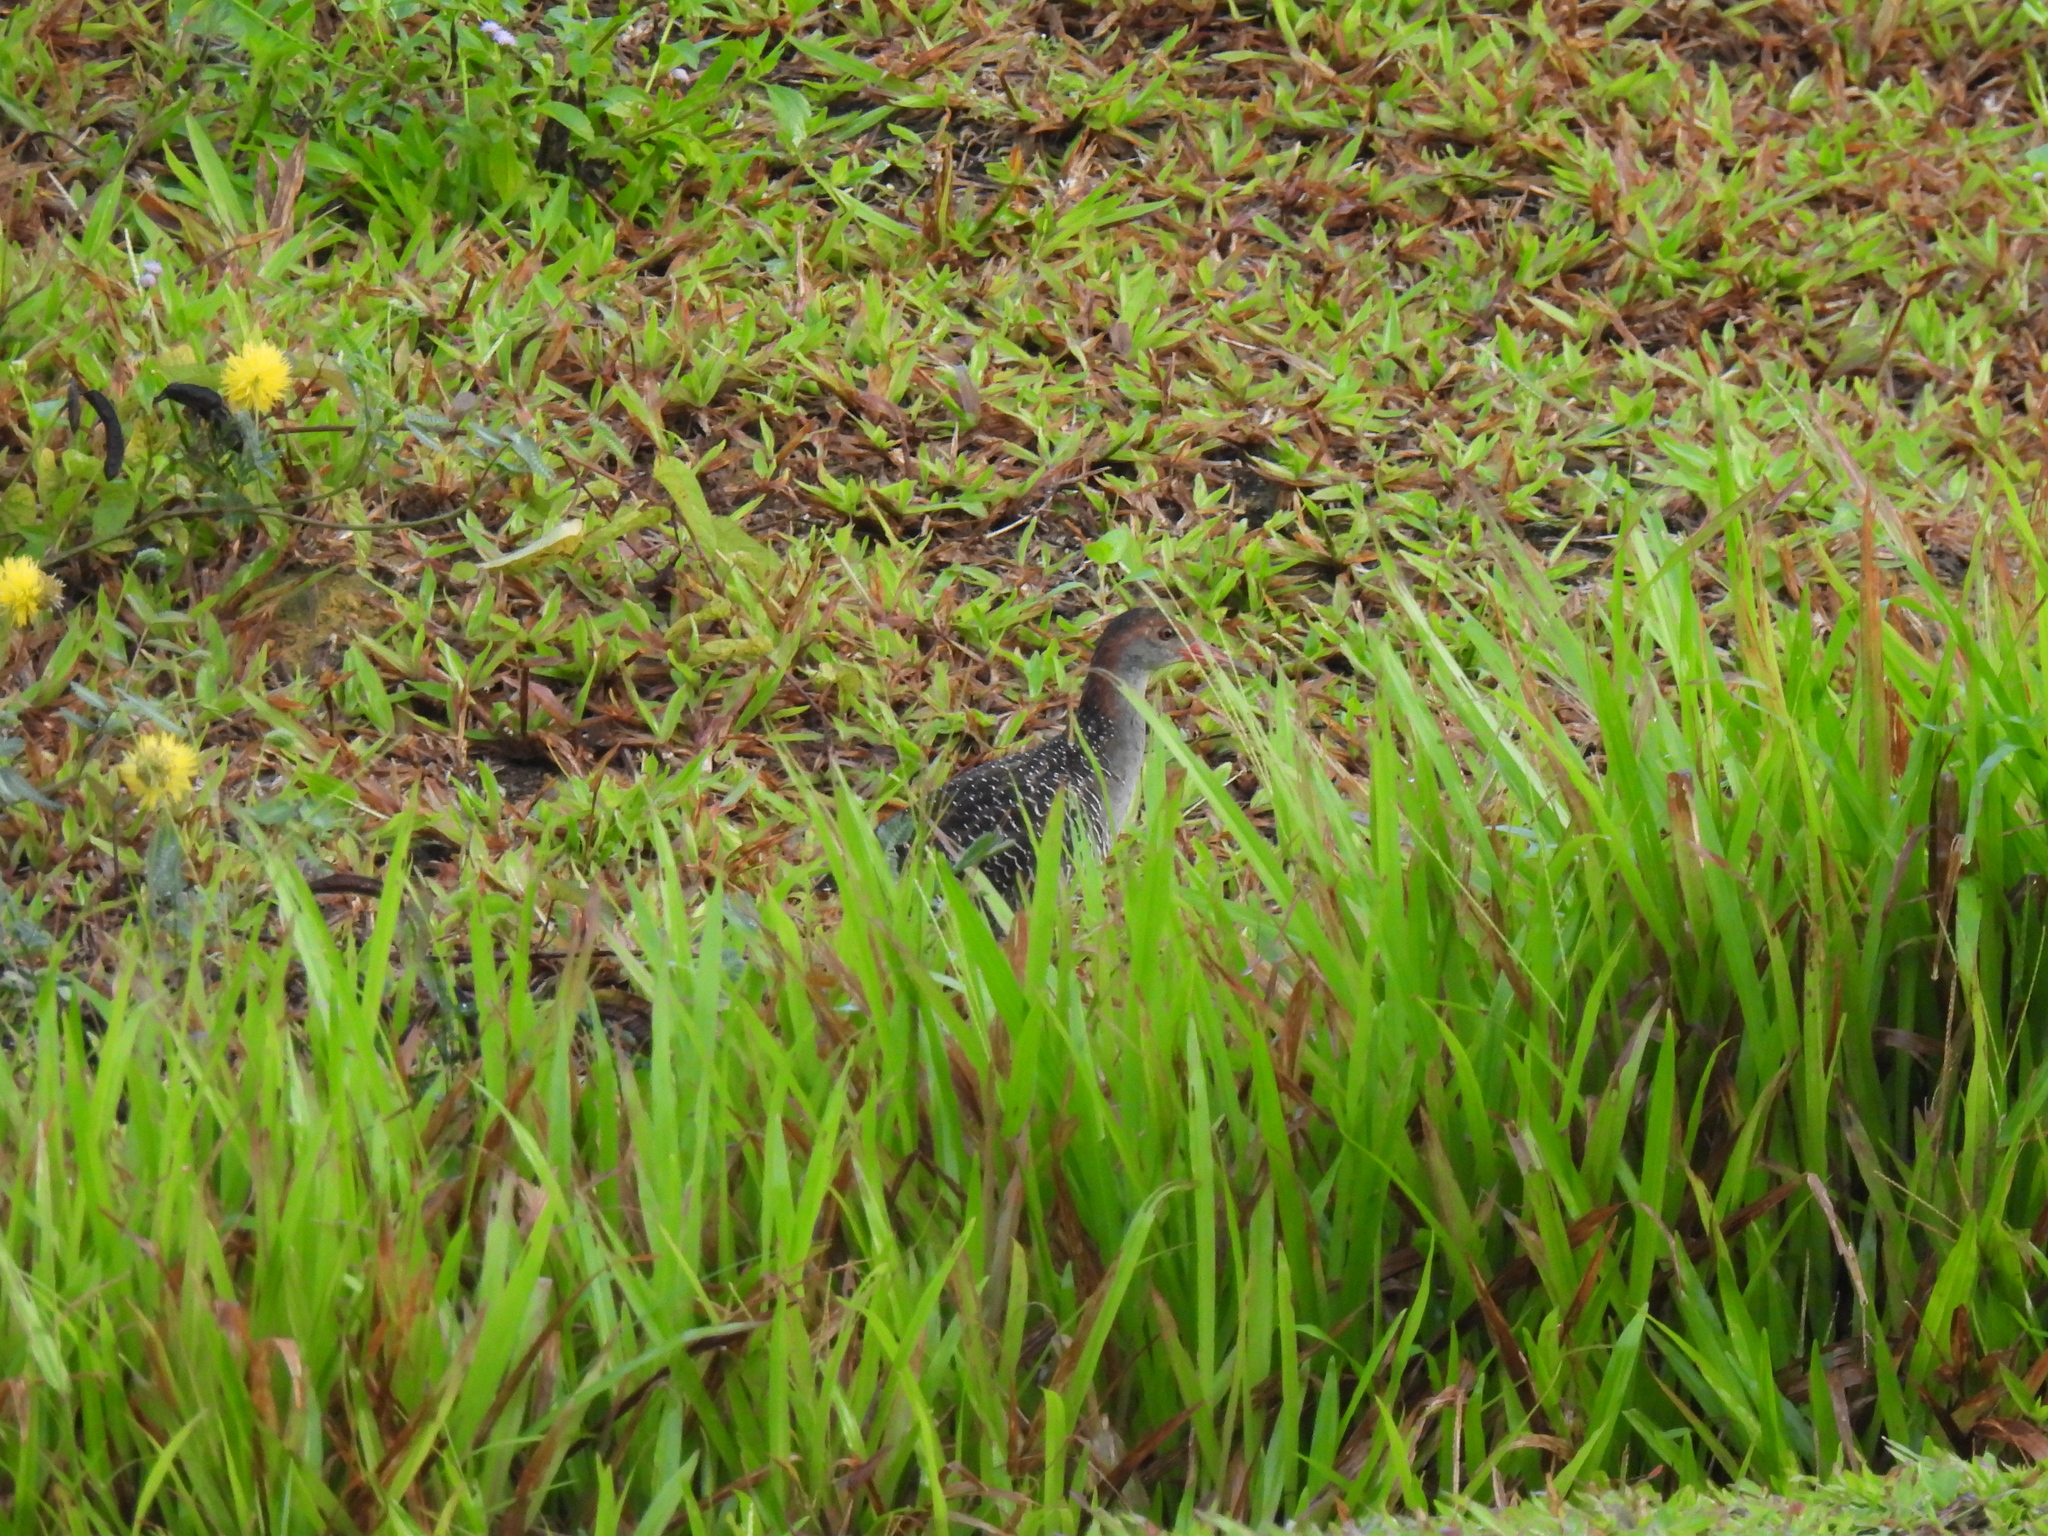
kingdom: Animalia
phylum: Chordata
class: Aves
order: Gruiformes
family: Rallidae
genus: Gallirallus
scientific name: Gallirallus striatus
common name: Slaty-breasted rail
